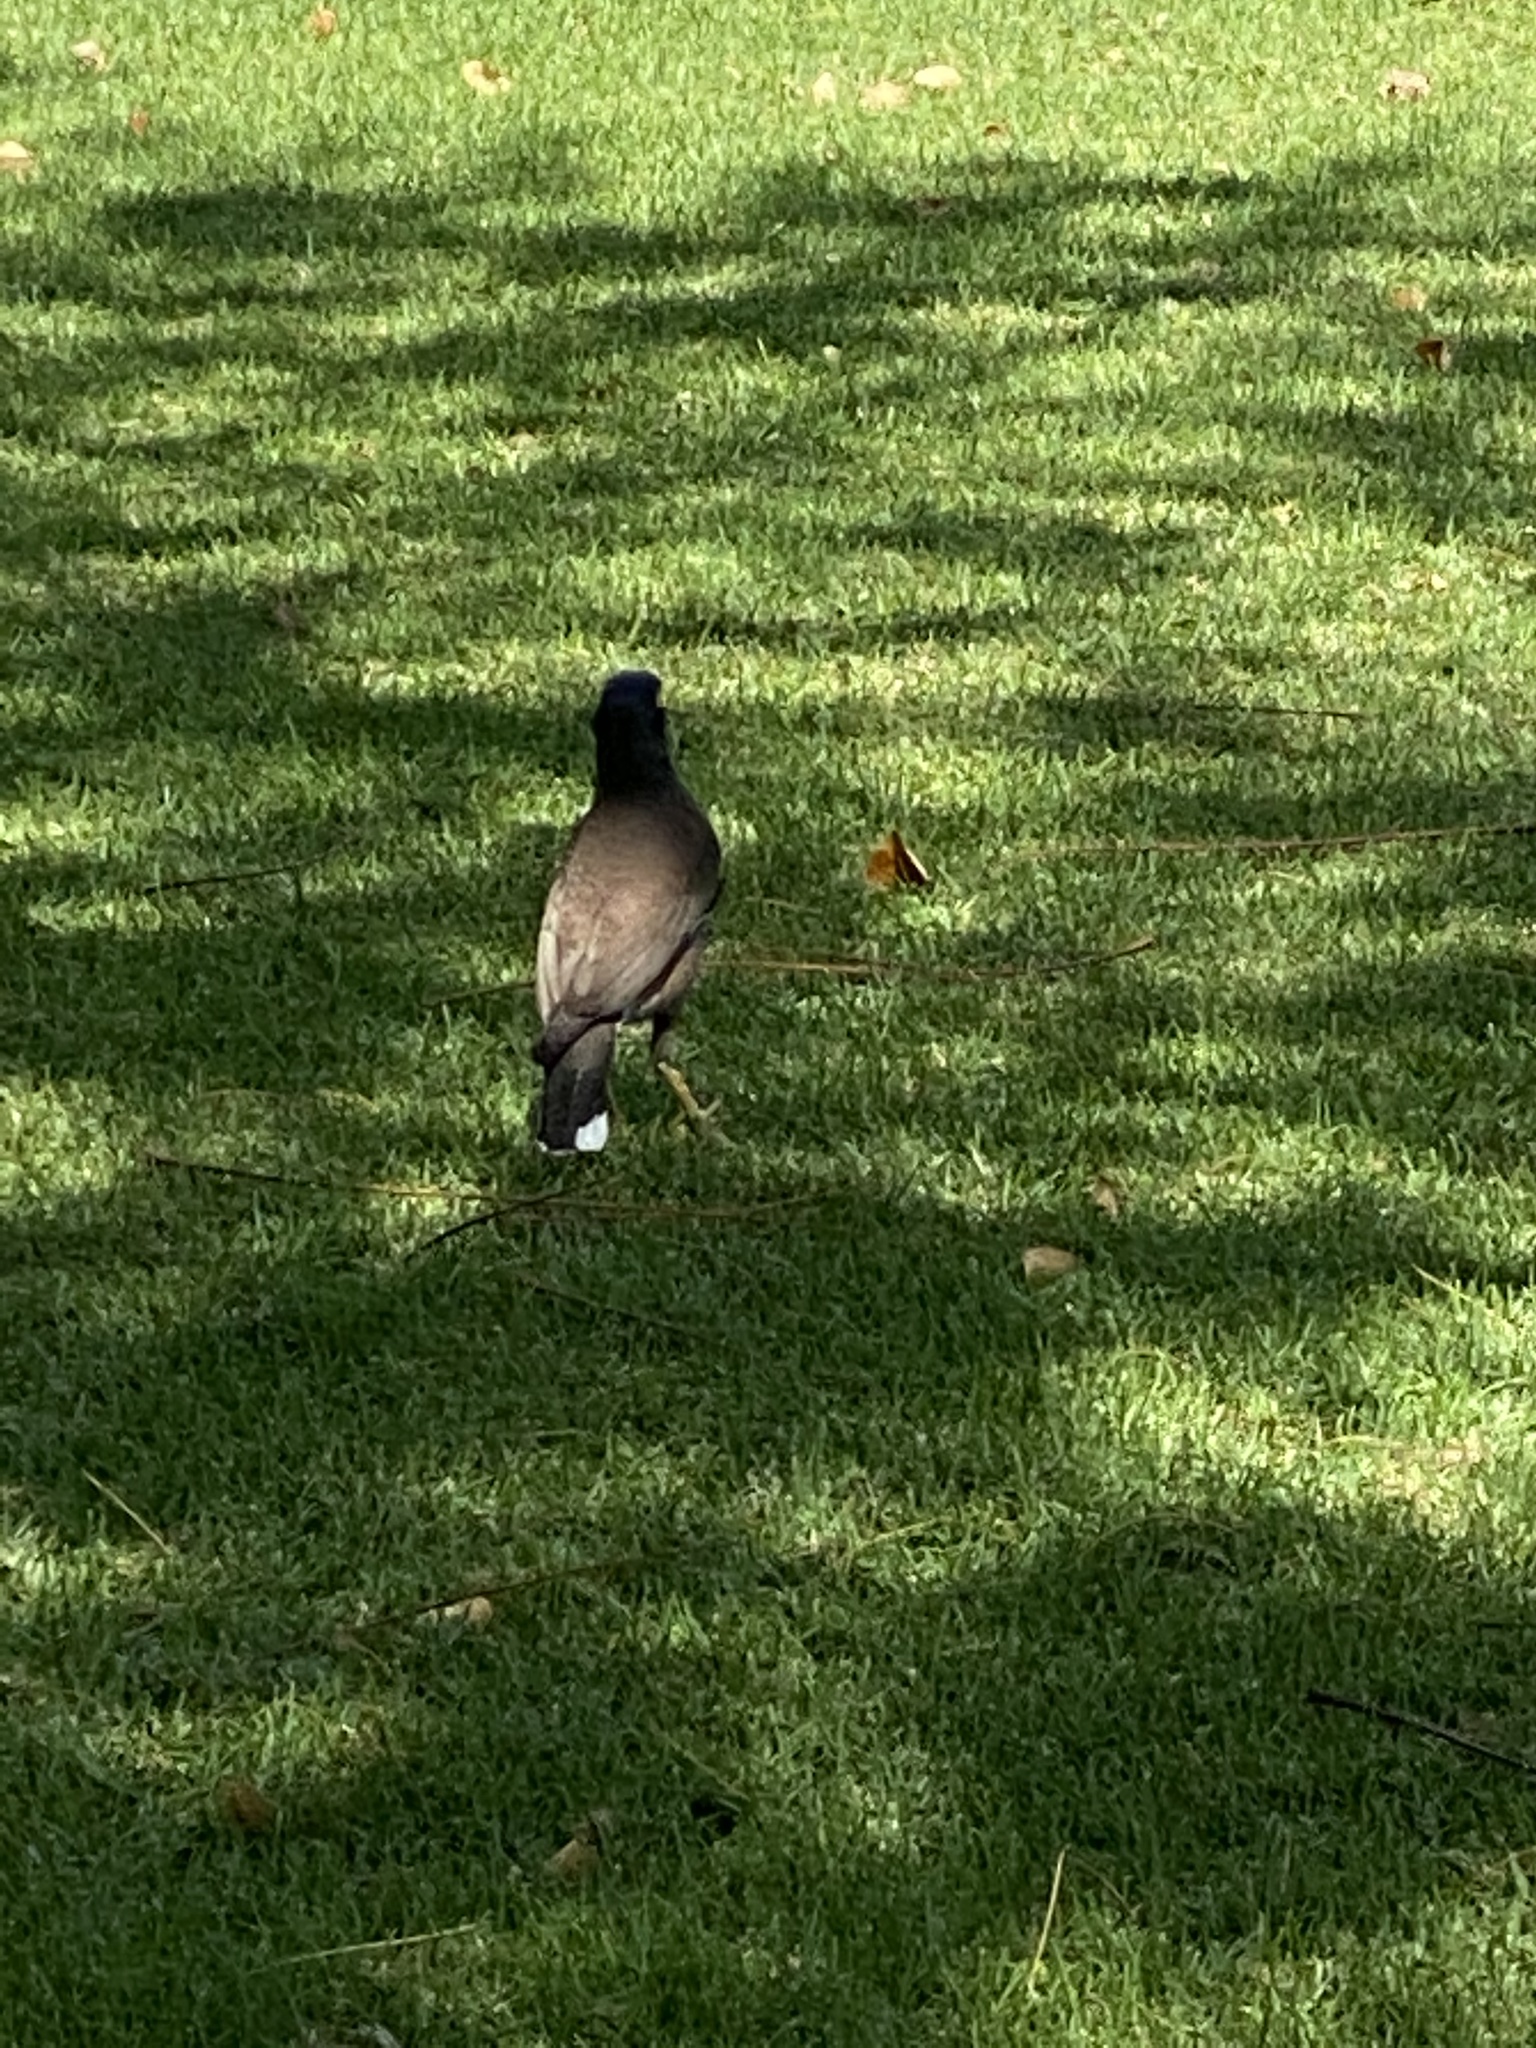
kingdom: Animalia
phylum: Chordata
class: Aves
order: Passeriformes
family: Sturnidae
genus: Acridotheres
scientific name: Acridotheres tristis
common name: Common myna
